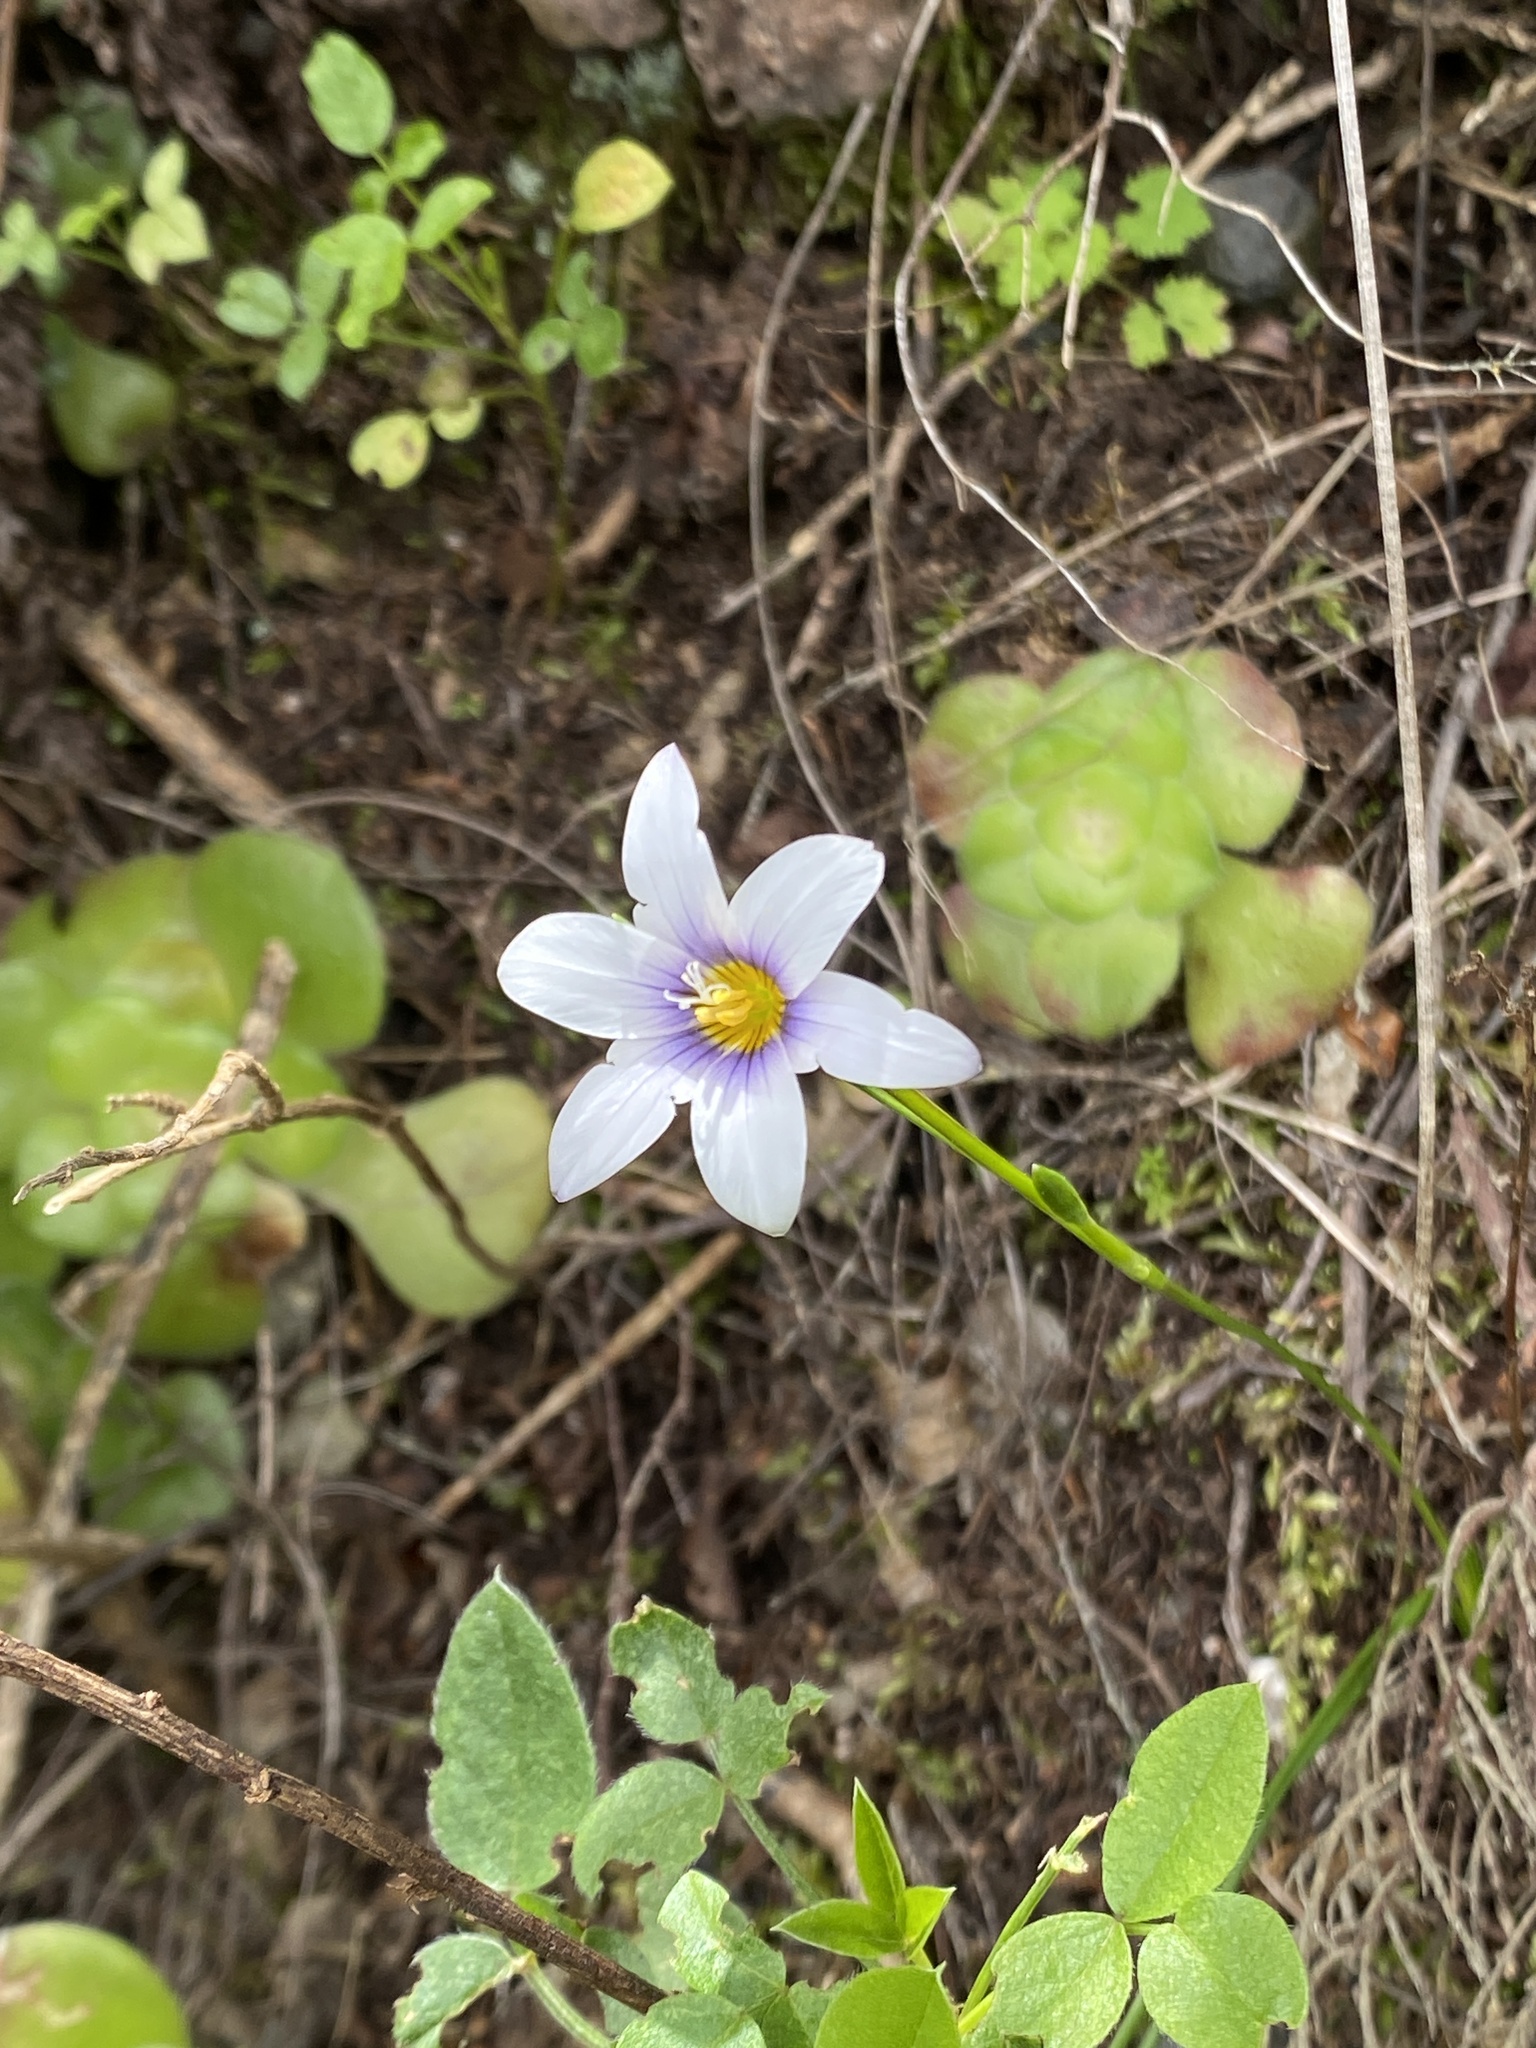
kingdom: Plantae
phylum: Tracheophyta
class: Liliopsida
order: Asparagales
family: Iridaceae
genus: Romulea
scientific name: Romulea columnae
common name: Sand-crocus
